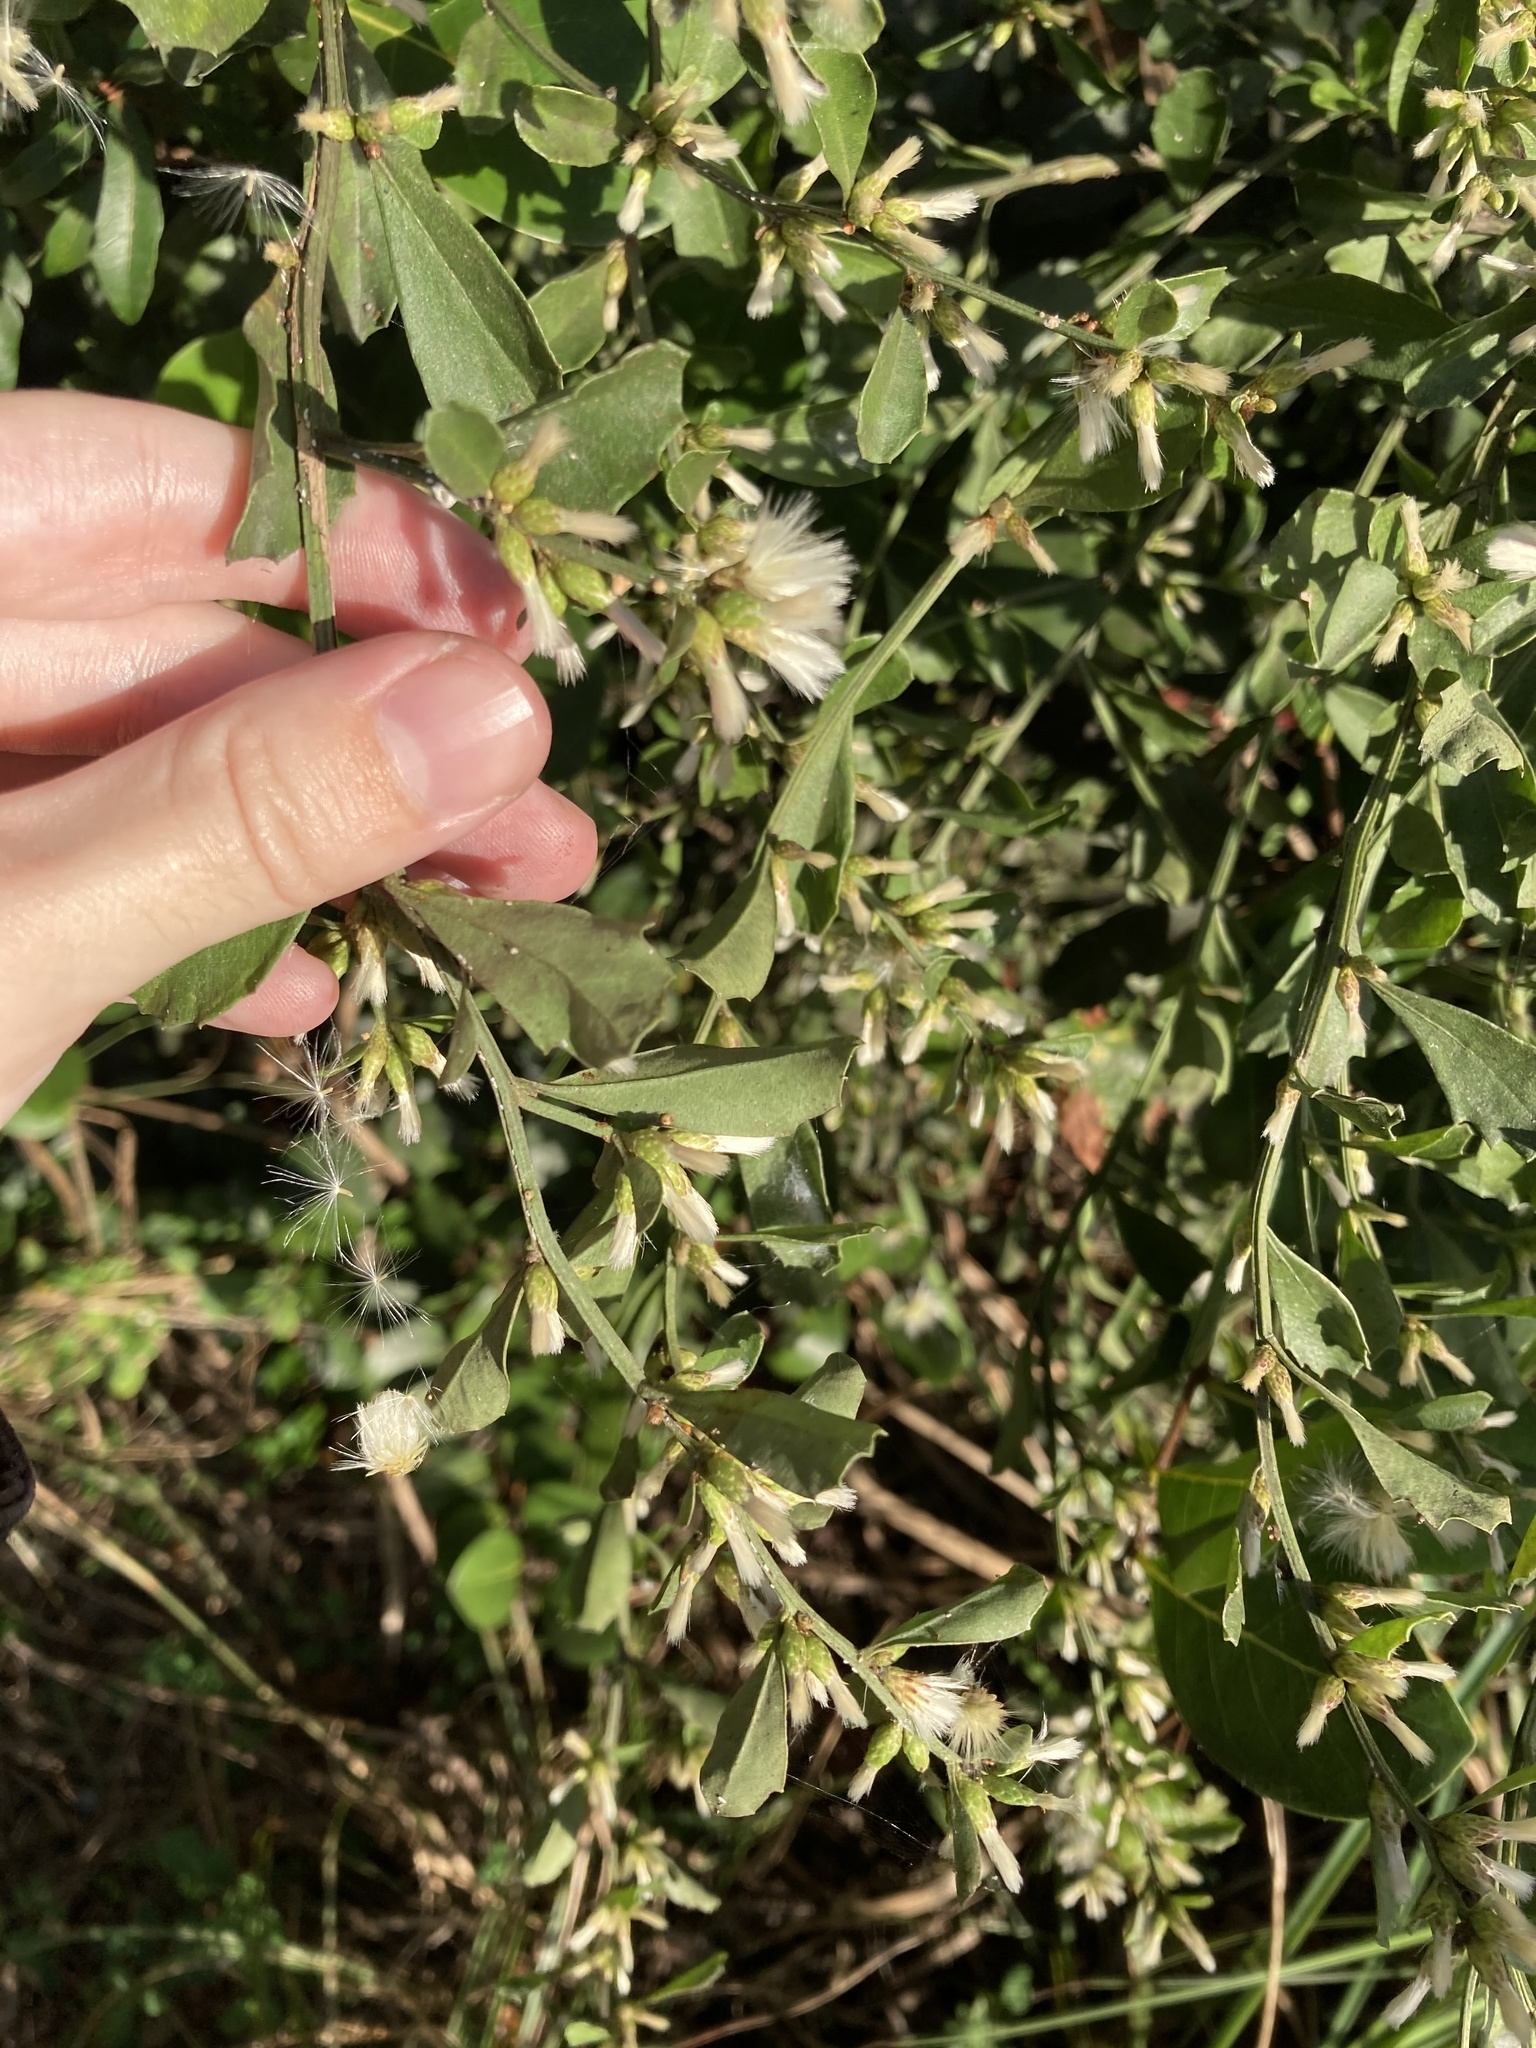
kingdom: Plantae
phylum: Tracheophyta
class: Magnoliopsida
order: Asterales
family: Asteraceae
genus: Baccharis
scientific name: Baccharis glomeruliflora
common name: Silverling groundsel bush
